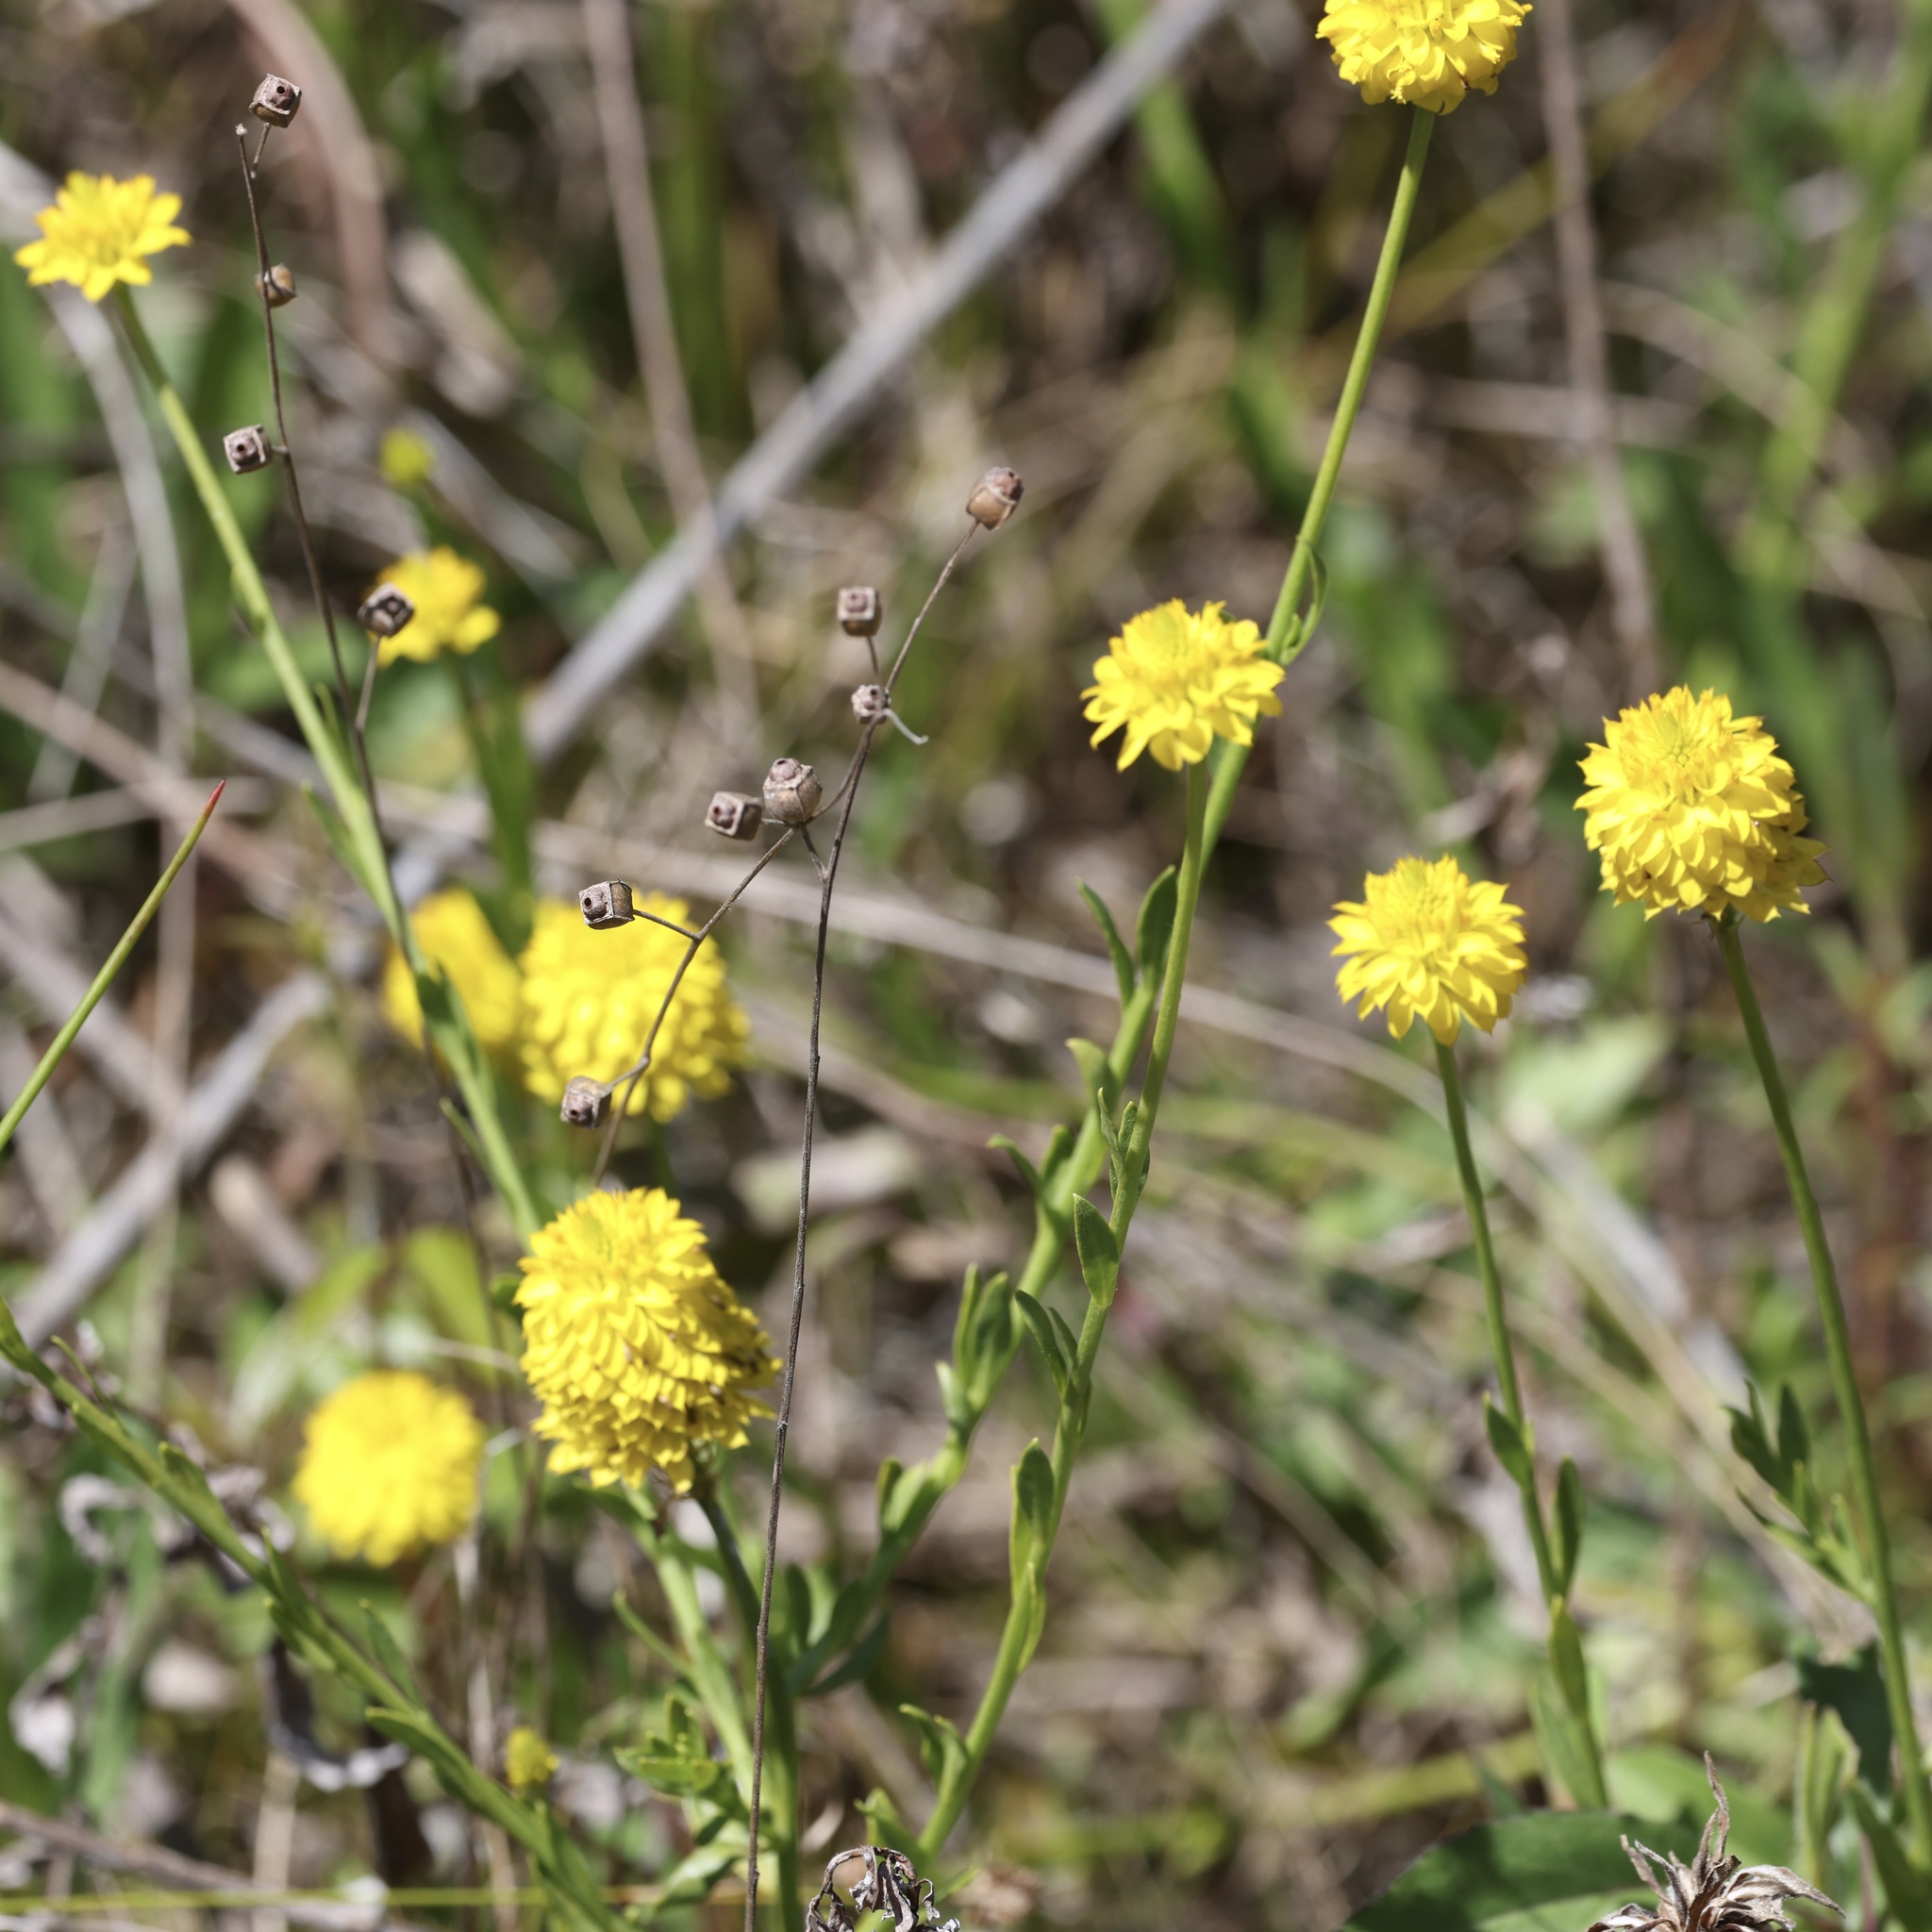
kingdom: Plantae
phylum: Tracheophyta
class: Magnoliopsida
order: Fabales
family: Polygalaceae
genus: Polygala
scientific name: Polygala rugelii
